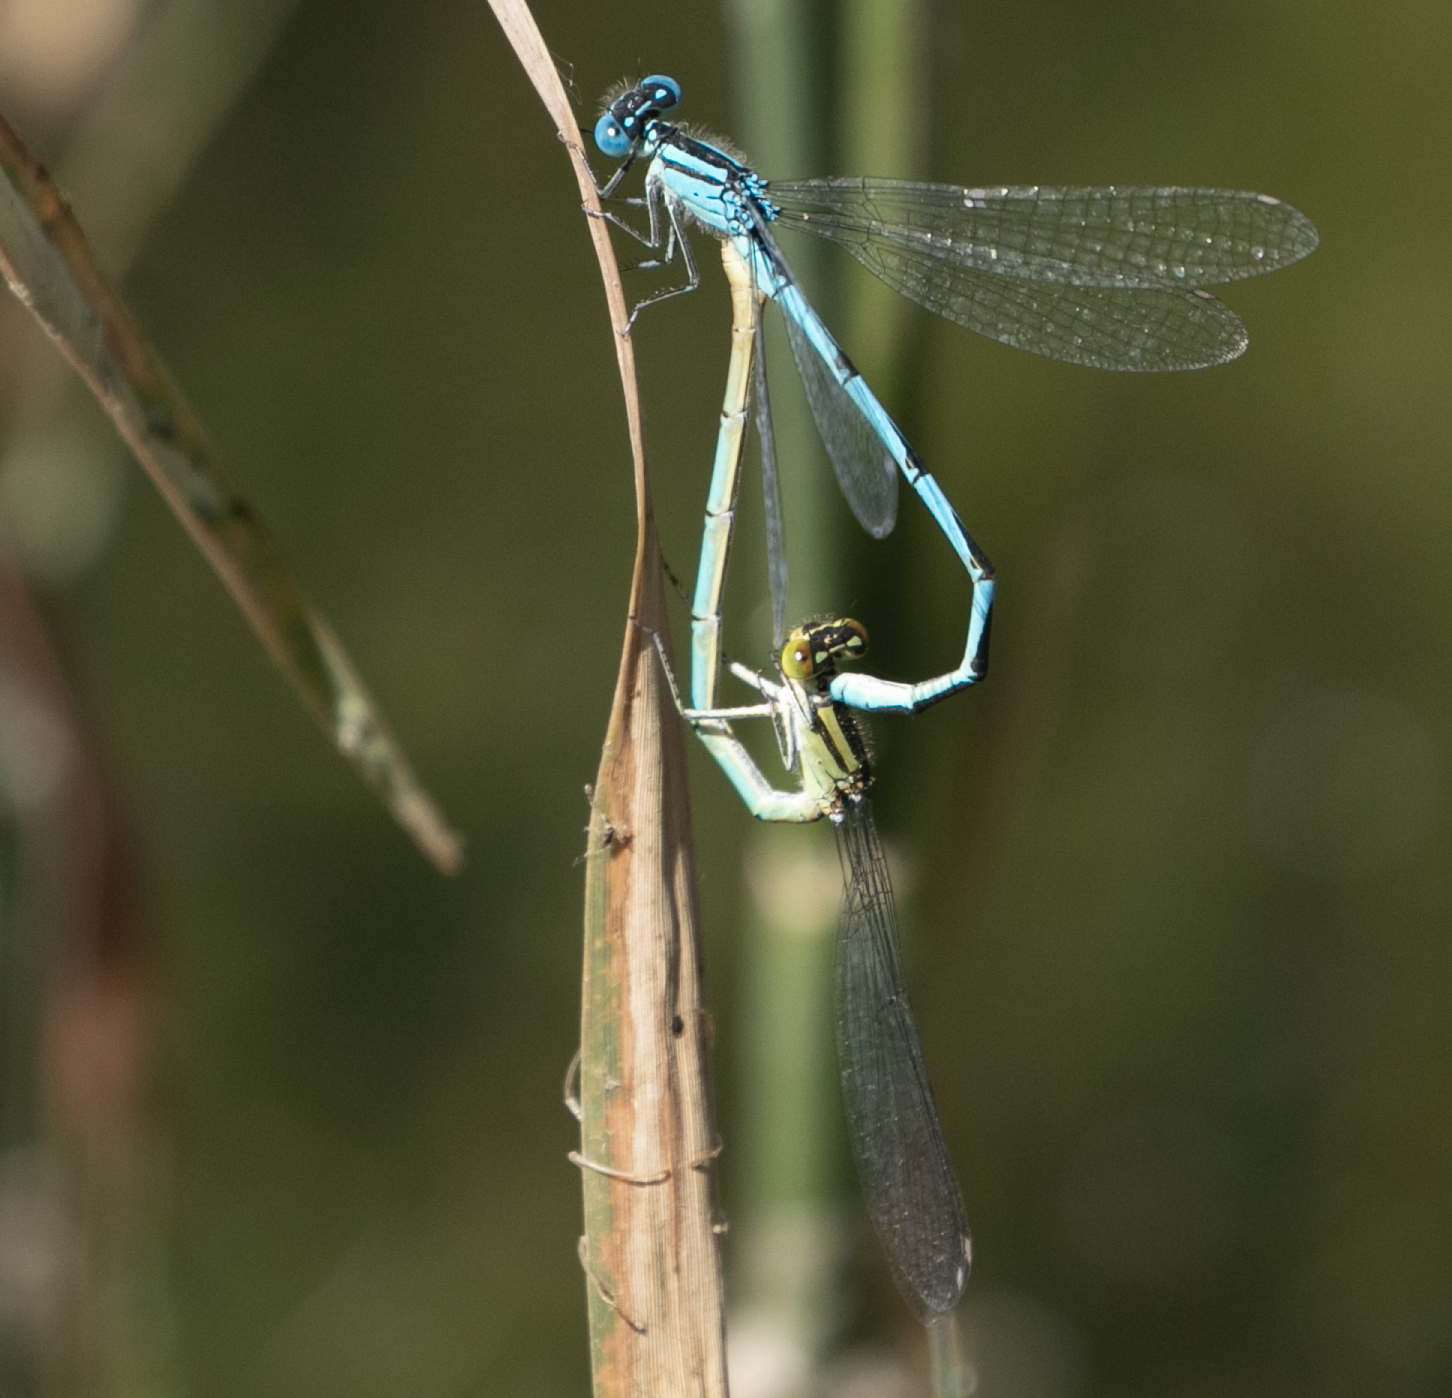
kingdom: Animalia
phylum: Arthropoda
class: Insecta
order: Odonata
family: Coenagrionidae
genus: Erythromma
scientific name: Erythromma lindenii
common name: Blue-eye
